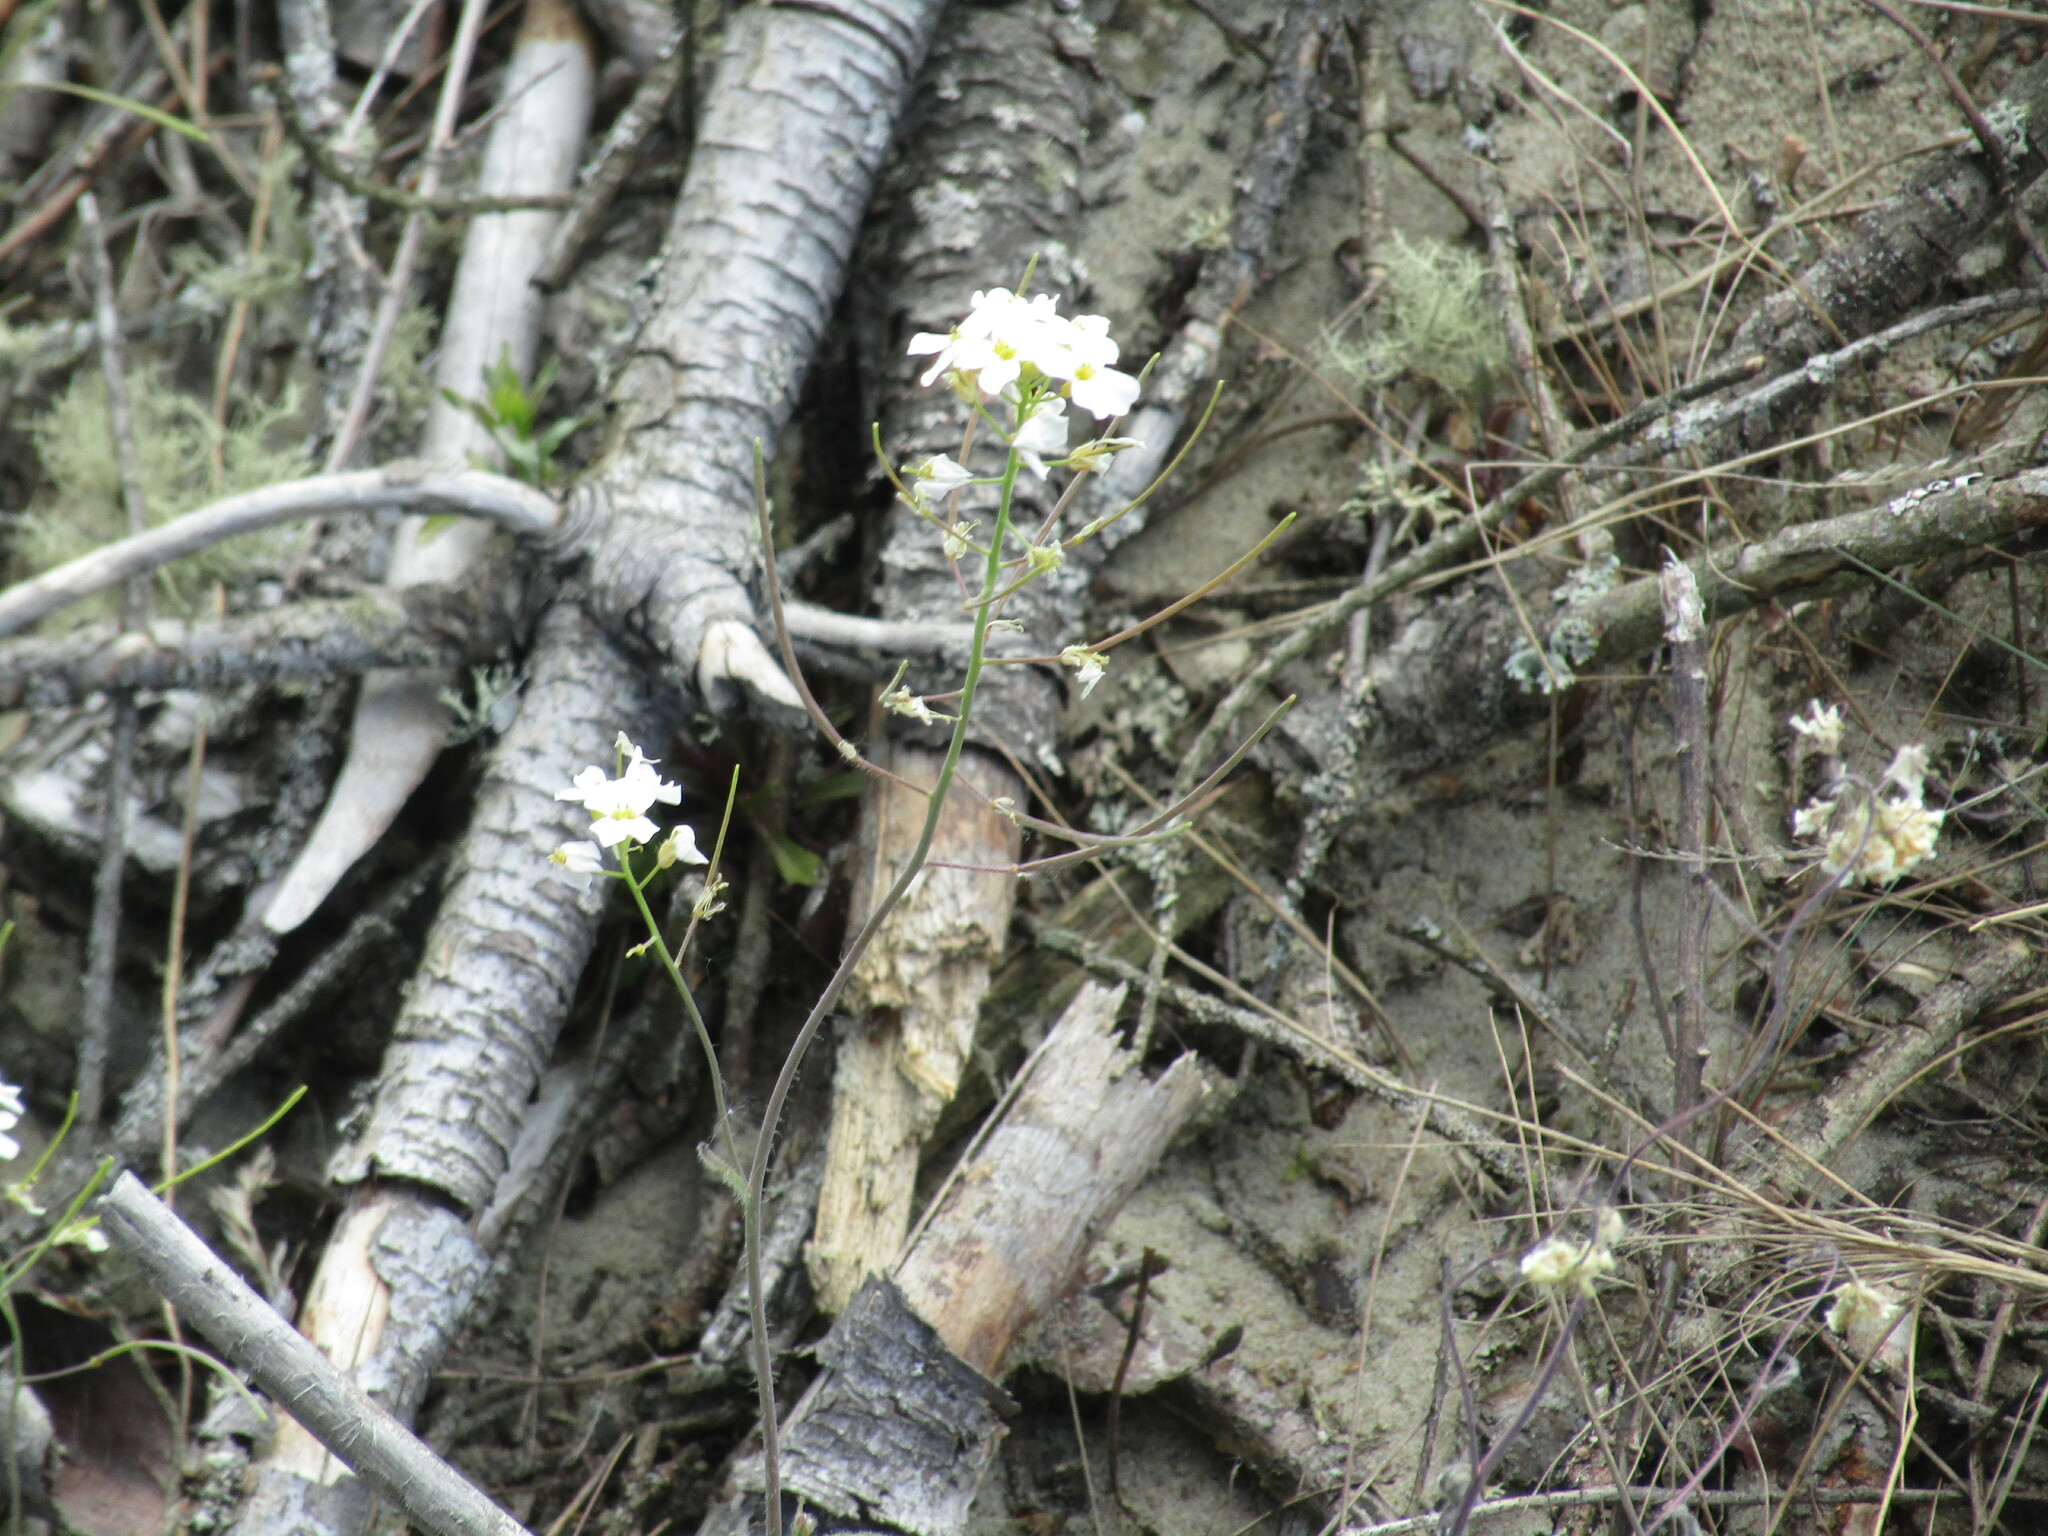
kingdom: Plantae
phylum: Tracheophyta
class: Magnoliopsida
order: Brassicales
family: Brassicaceae
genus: Arabidopsis
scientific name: Arabidopsis arenosa
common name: Sand rock-cress
